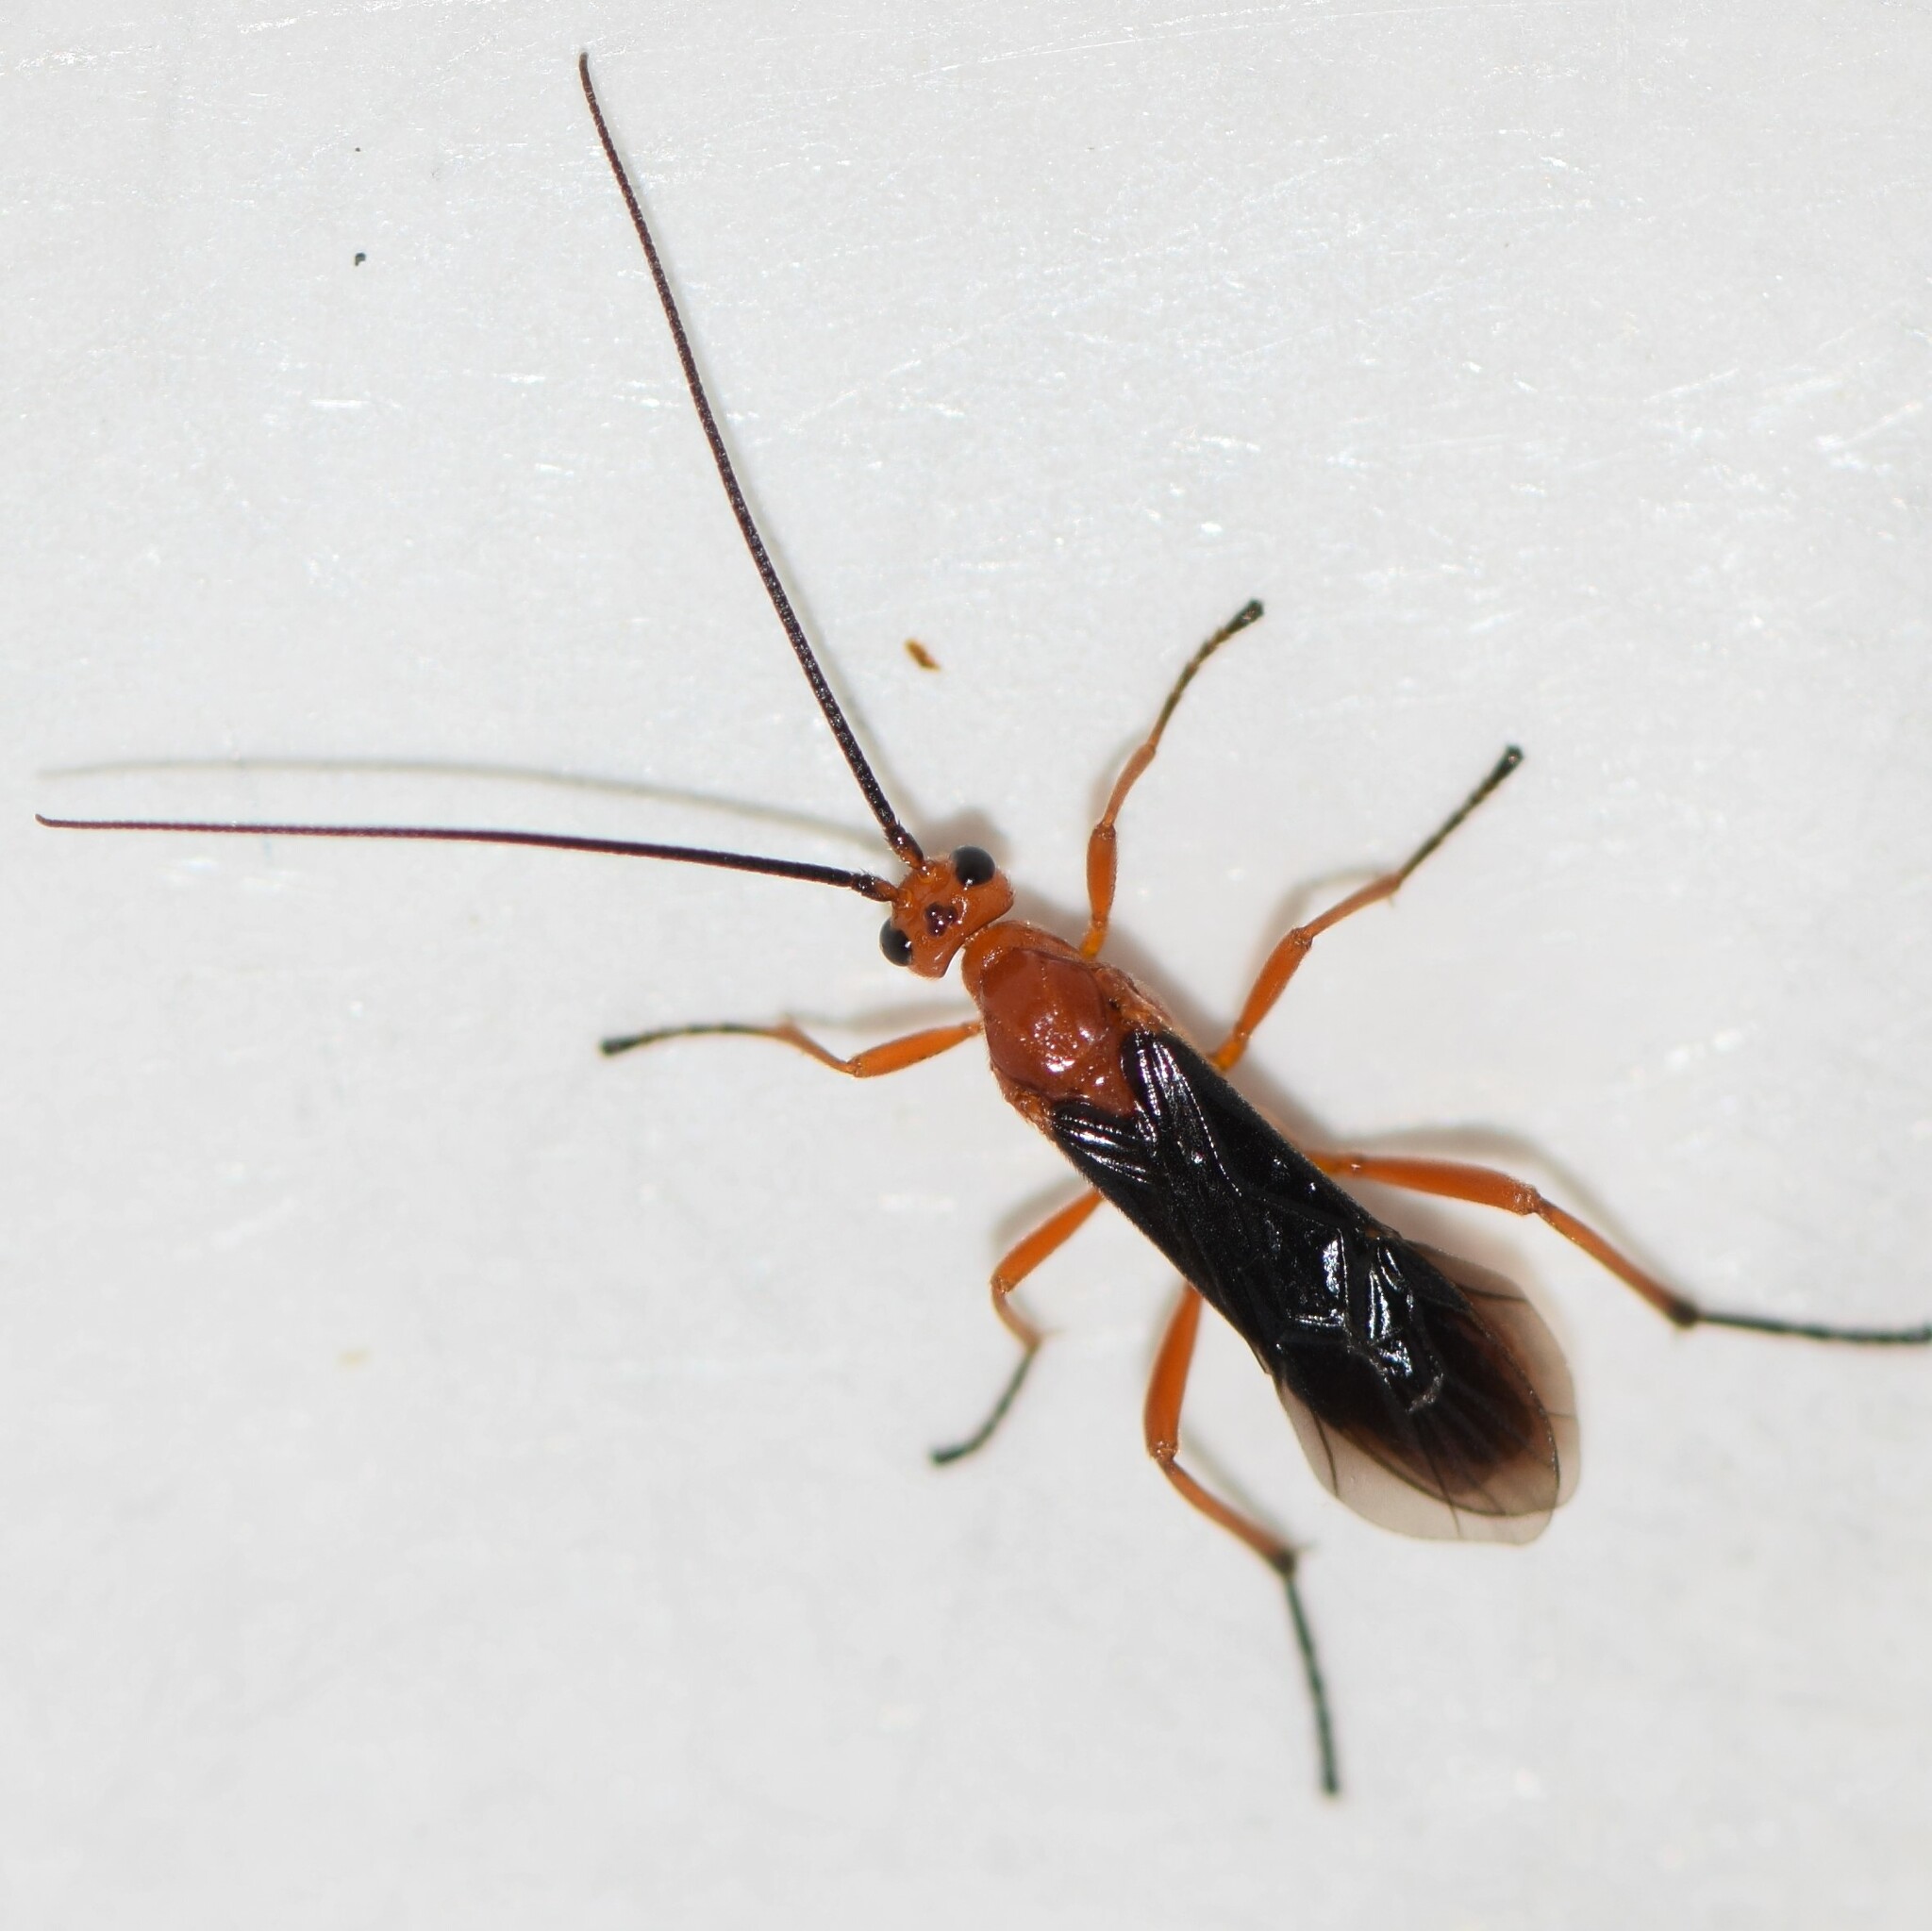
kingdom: Animalia
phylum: Arthropoda
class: Insecta
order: Hymenoptera
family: Braconidae
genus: Aleiodes
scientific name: Aleiodes politiceps
